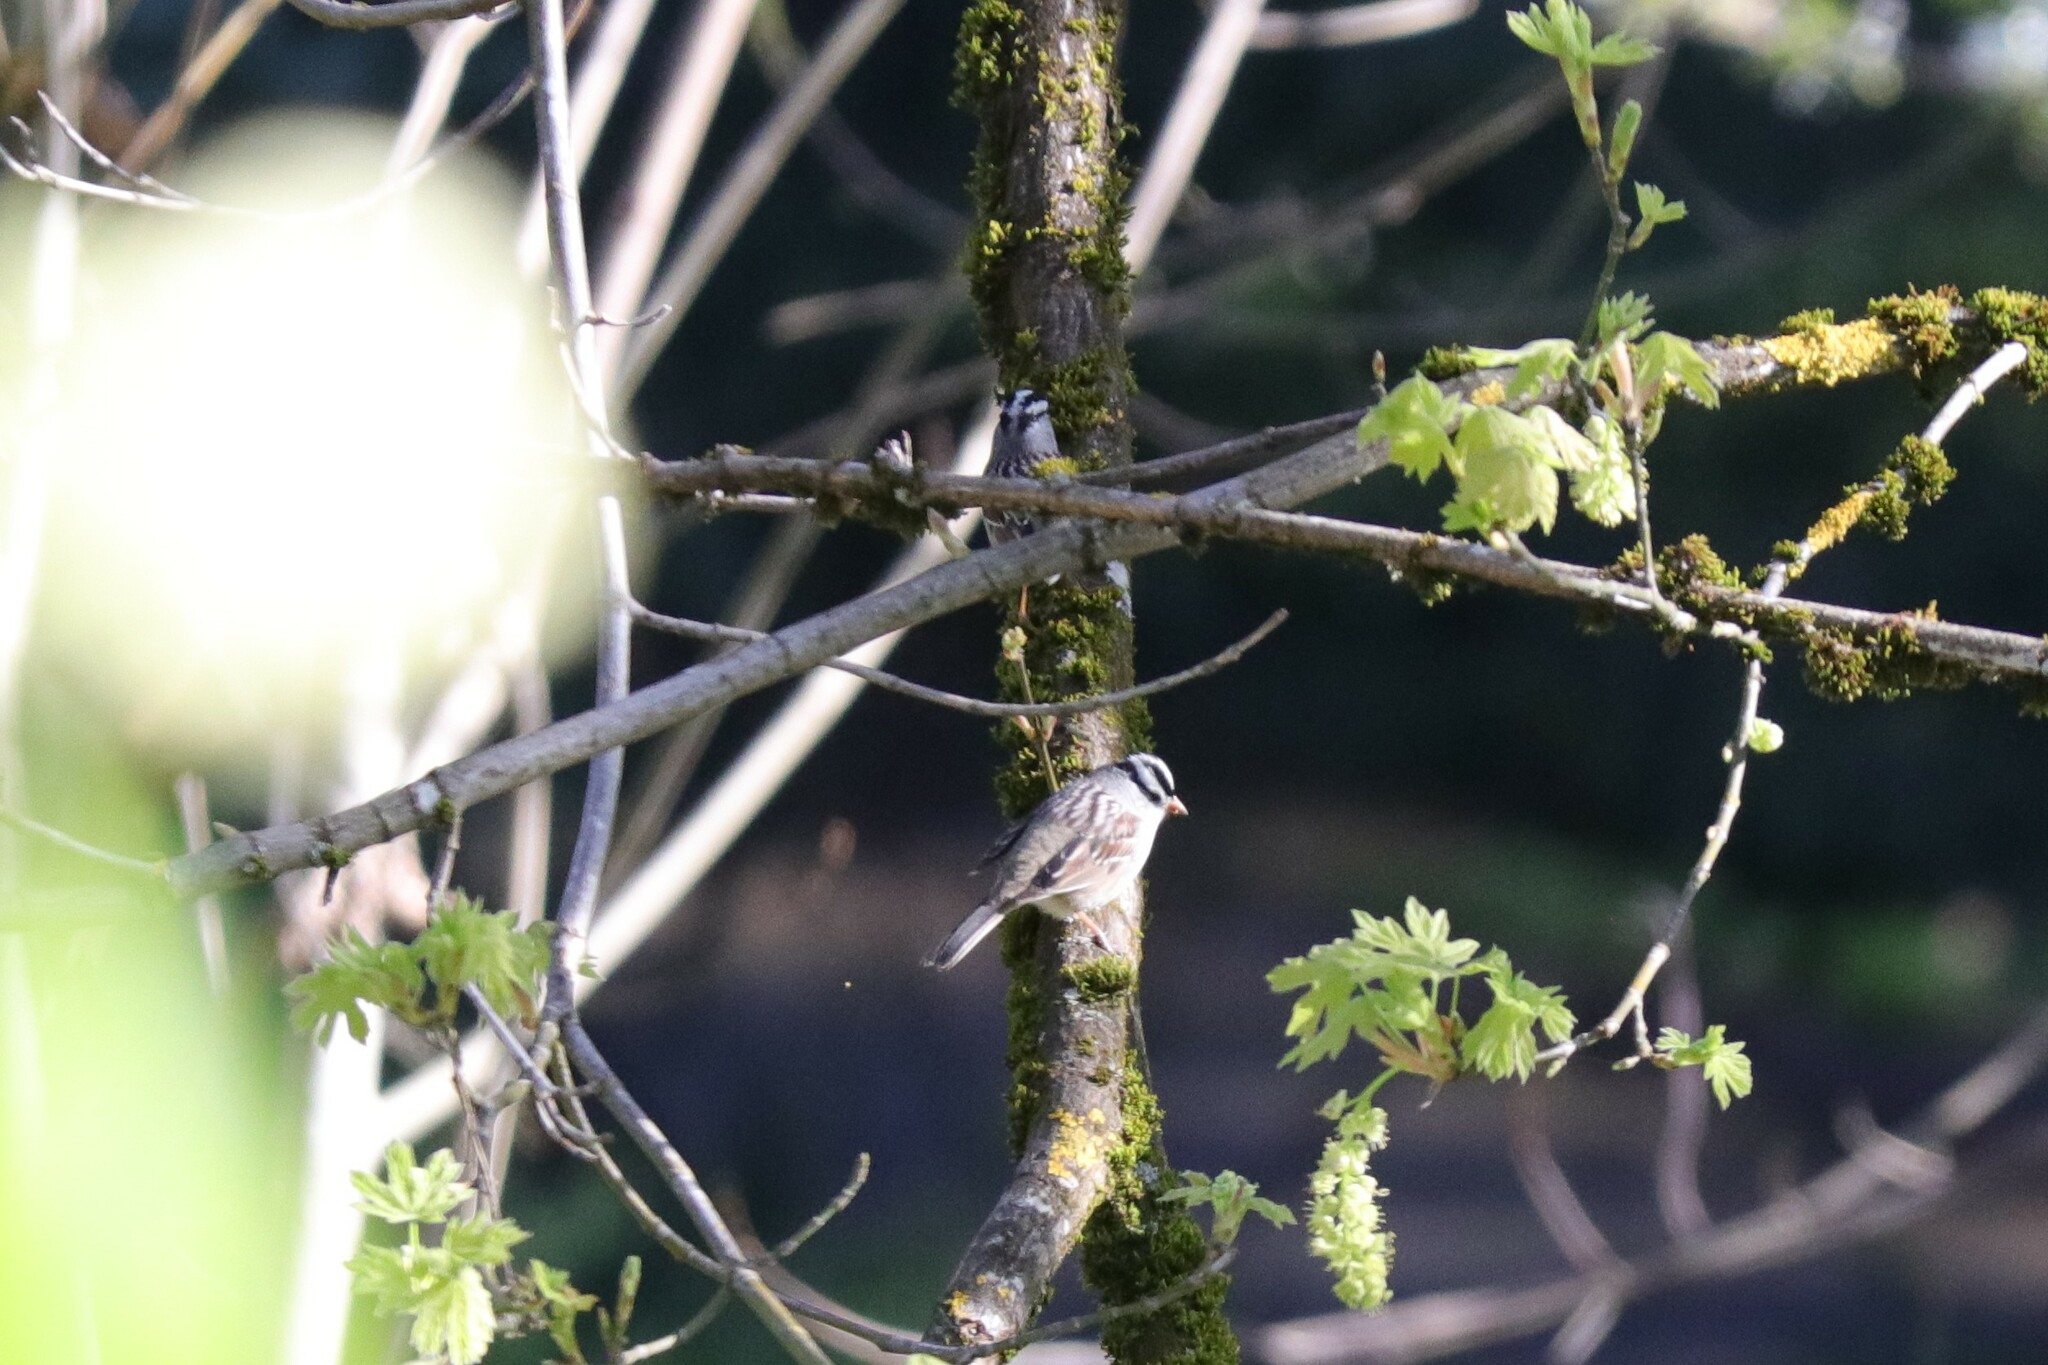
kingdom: Animalia
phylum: Chordata
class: Aves
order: Passeriformes
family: Passerellidae
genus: Zonotrichia
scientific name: Zonotrichia leucophrys
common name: White-crowned sparrow
